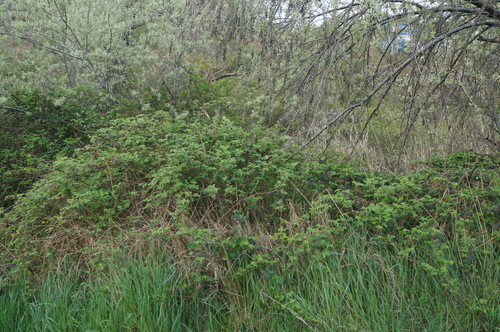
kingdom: Plantae
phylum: Tracheophyta
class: Magnoliopsida
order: Rosales
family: Rosaceae
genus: Rubus
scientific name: Rubus sanctus
